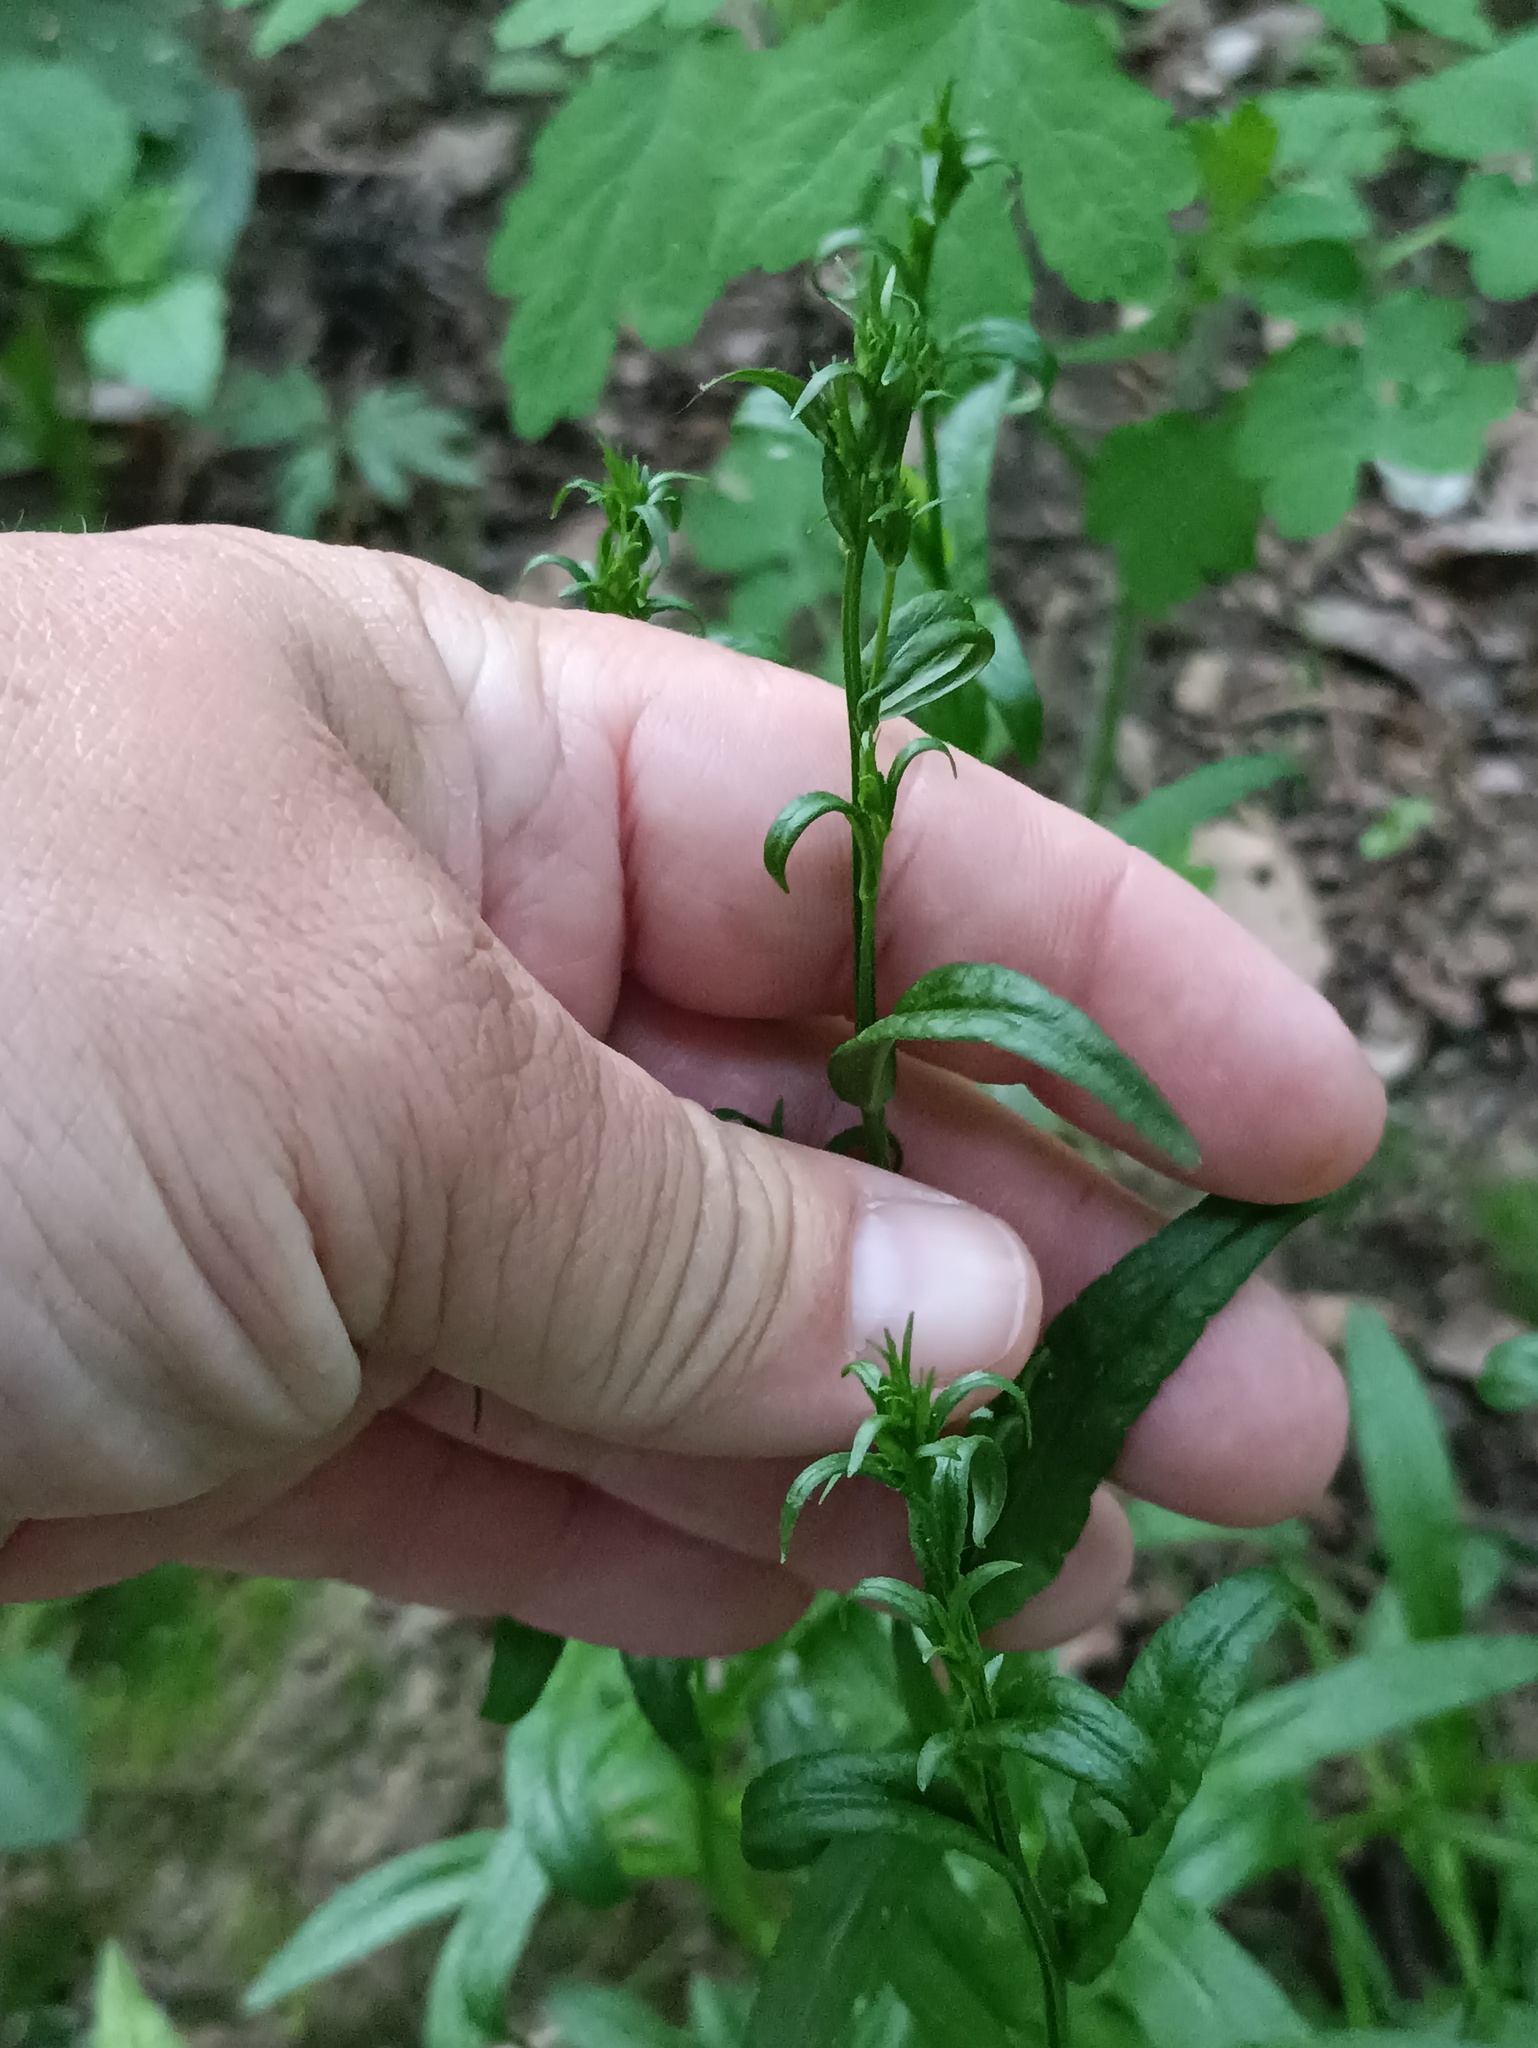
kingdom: Plantae
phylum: Tracheophyta
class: Magnoliopsida
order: Asterales
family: Campanulaceae
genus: Campanula
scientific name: Campanula persicifolia
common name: Peach-leaved bellflower
